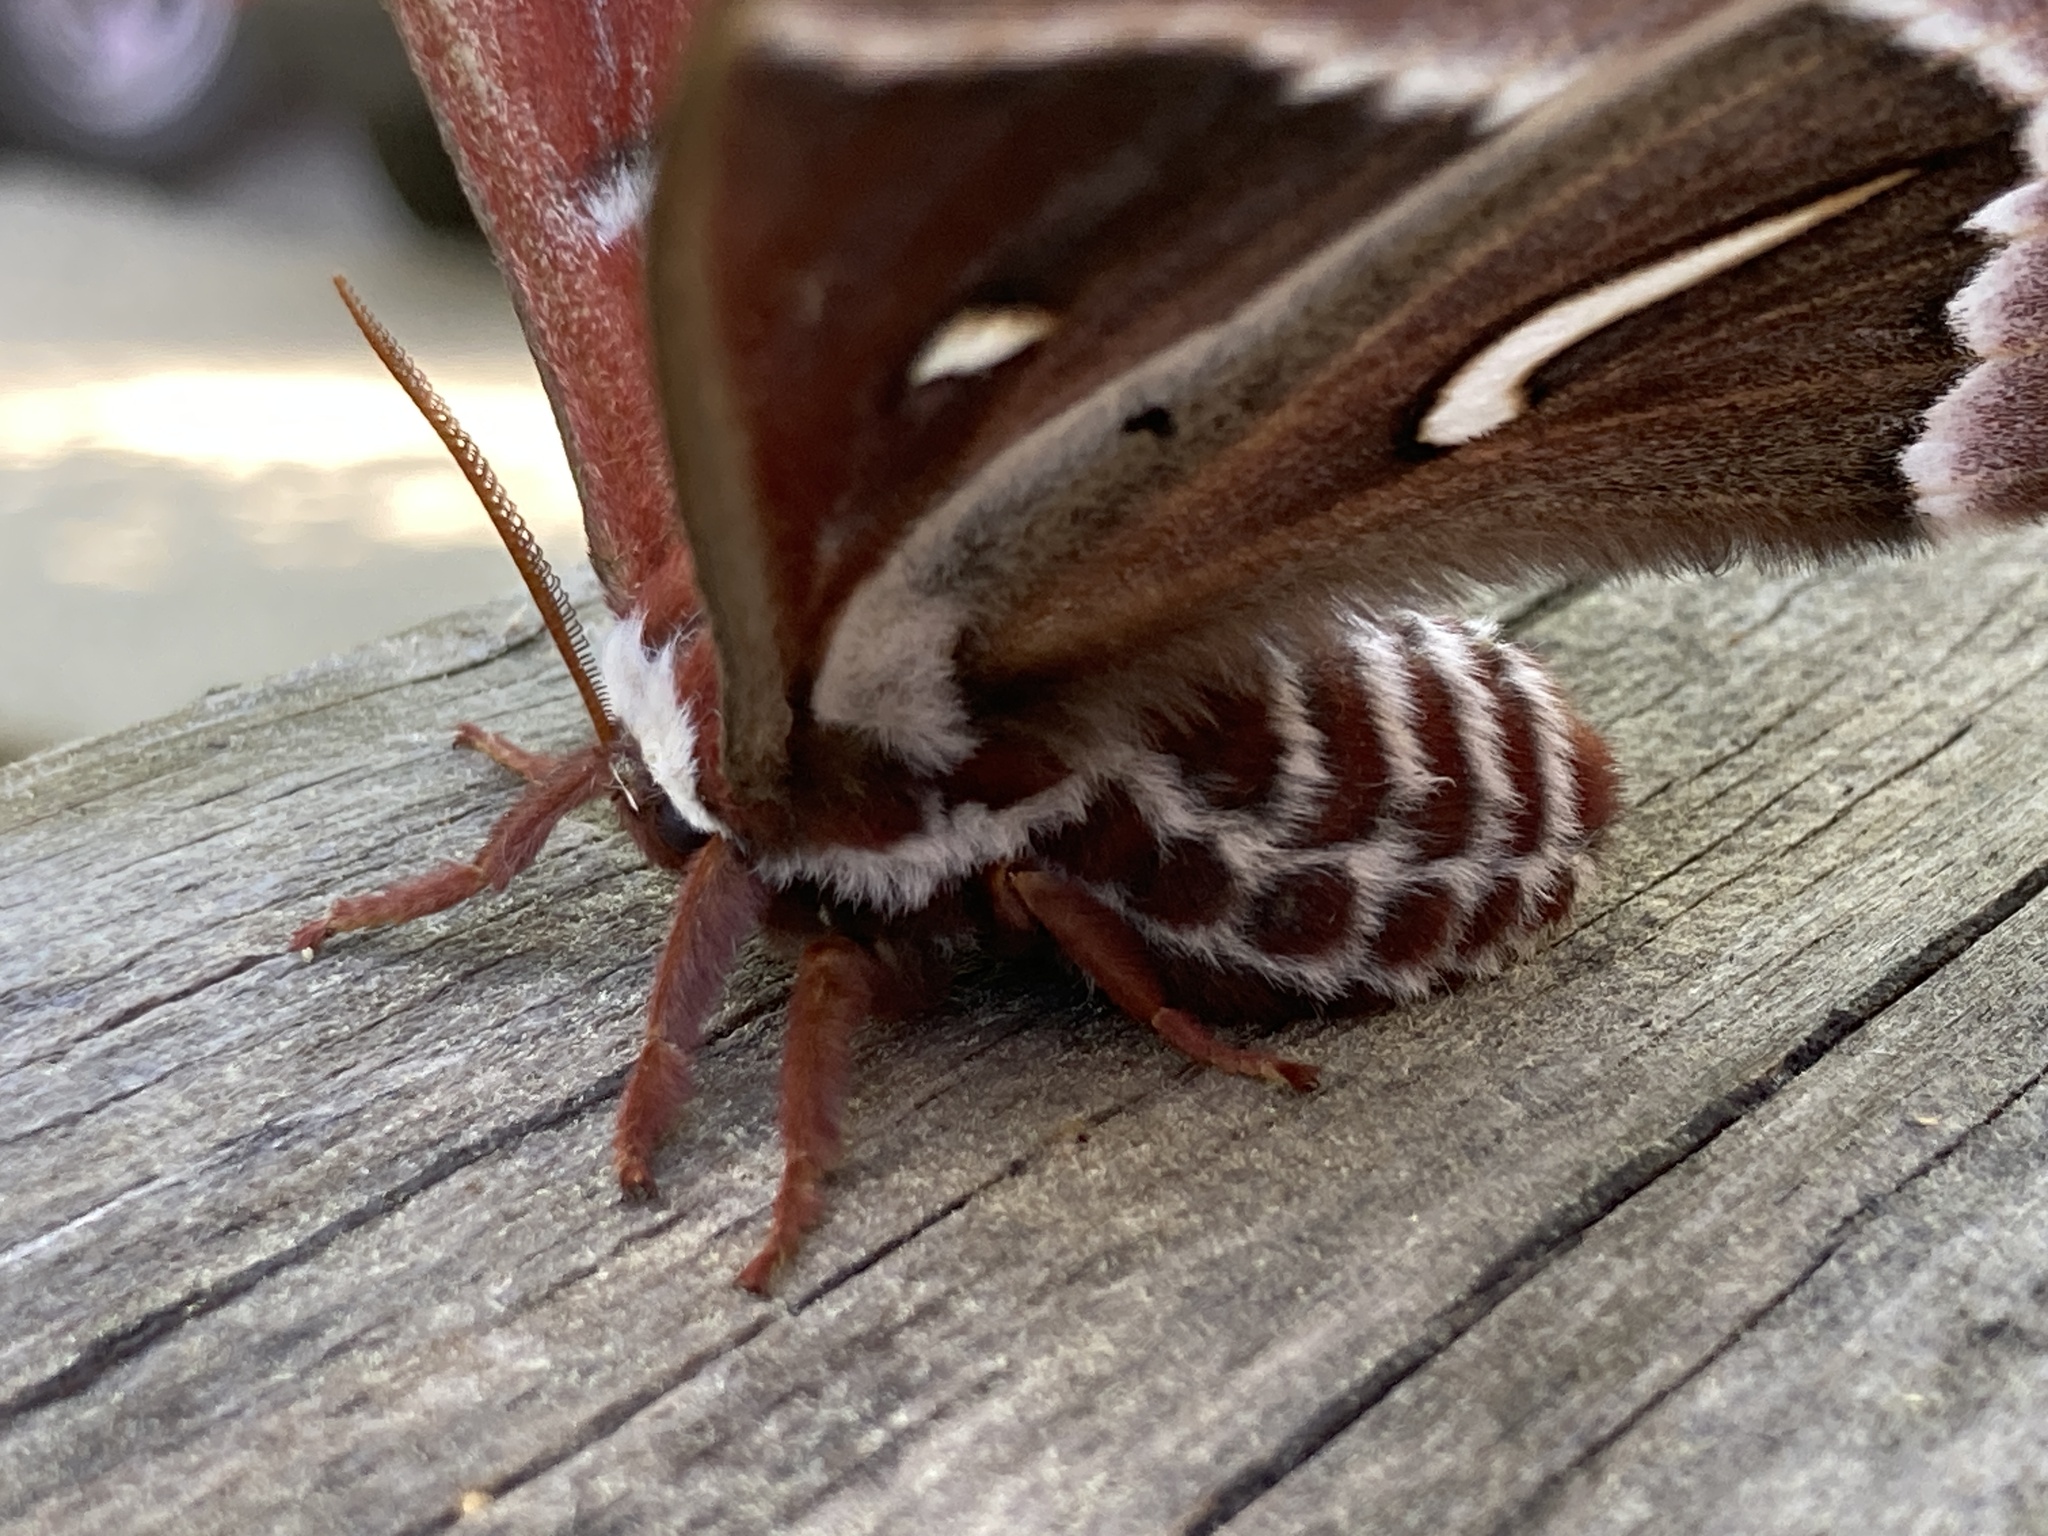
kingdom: Animalia
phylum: Arthropoda
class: Insecta
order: Lepidoptera
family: Saturniidae
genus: Hyalophora
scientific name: Hyalophora euryalus
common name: Ceanothus silkmoth
